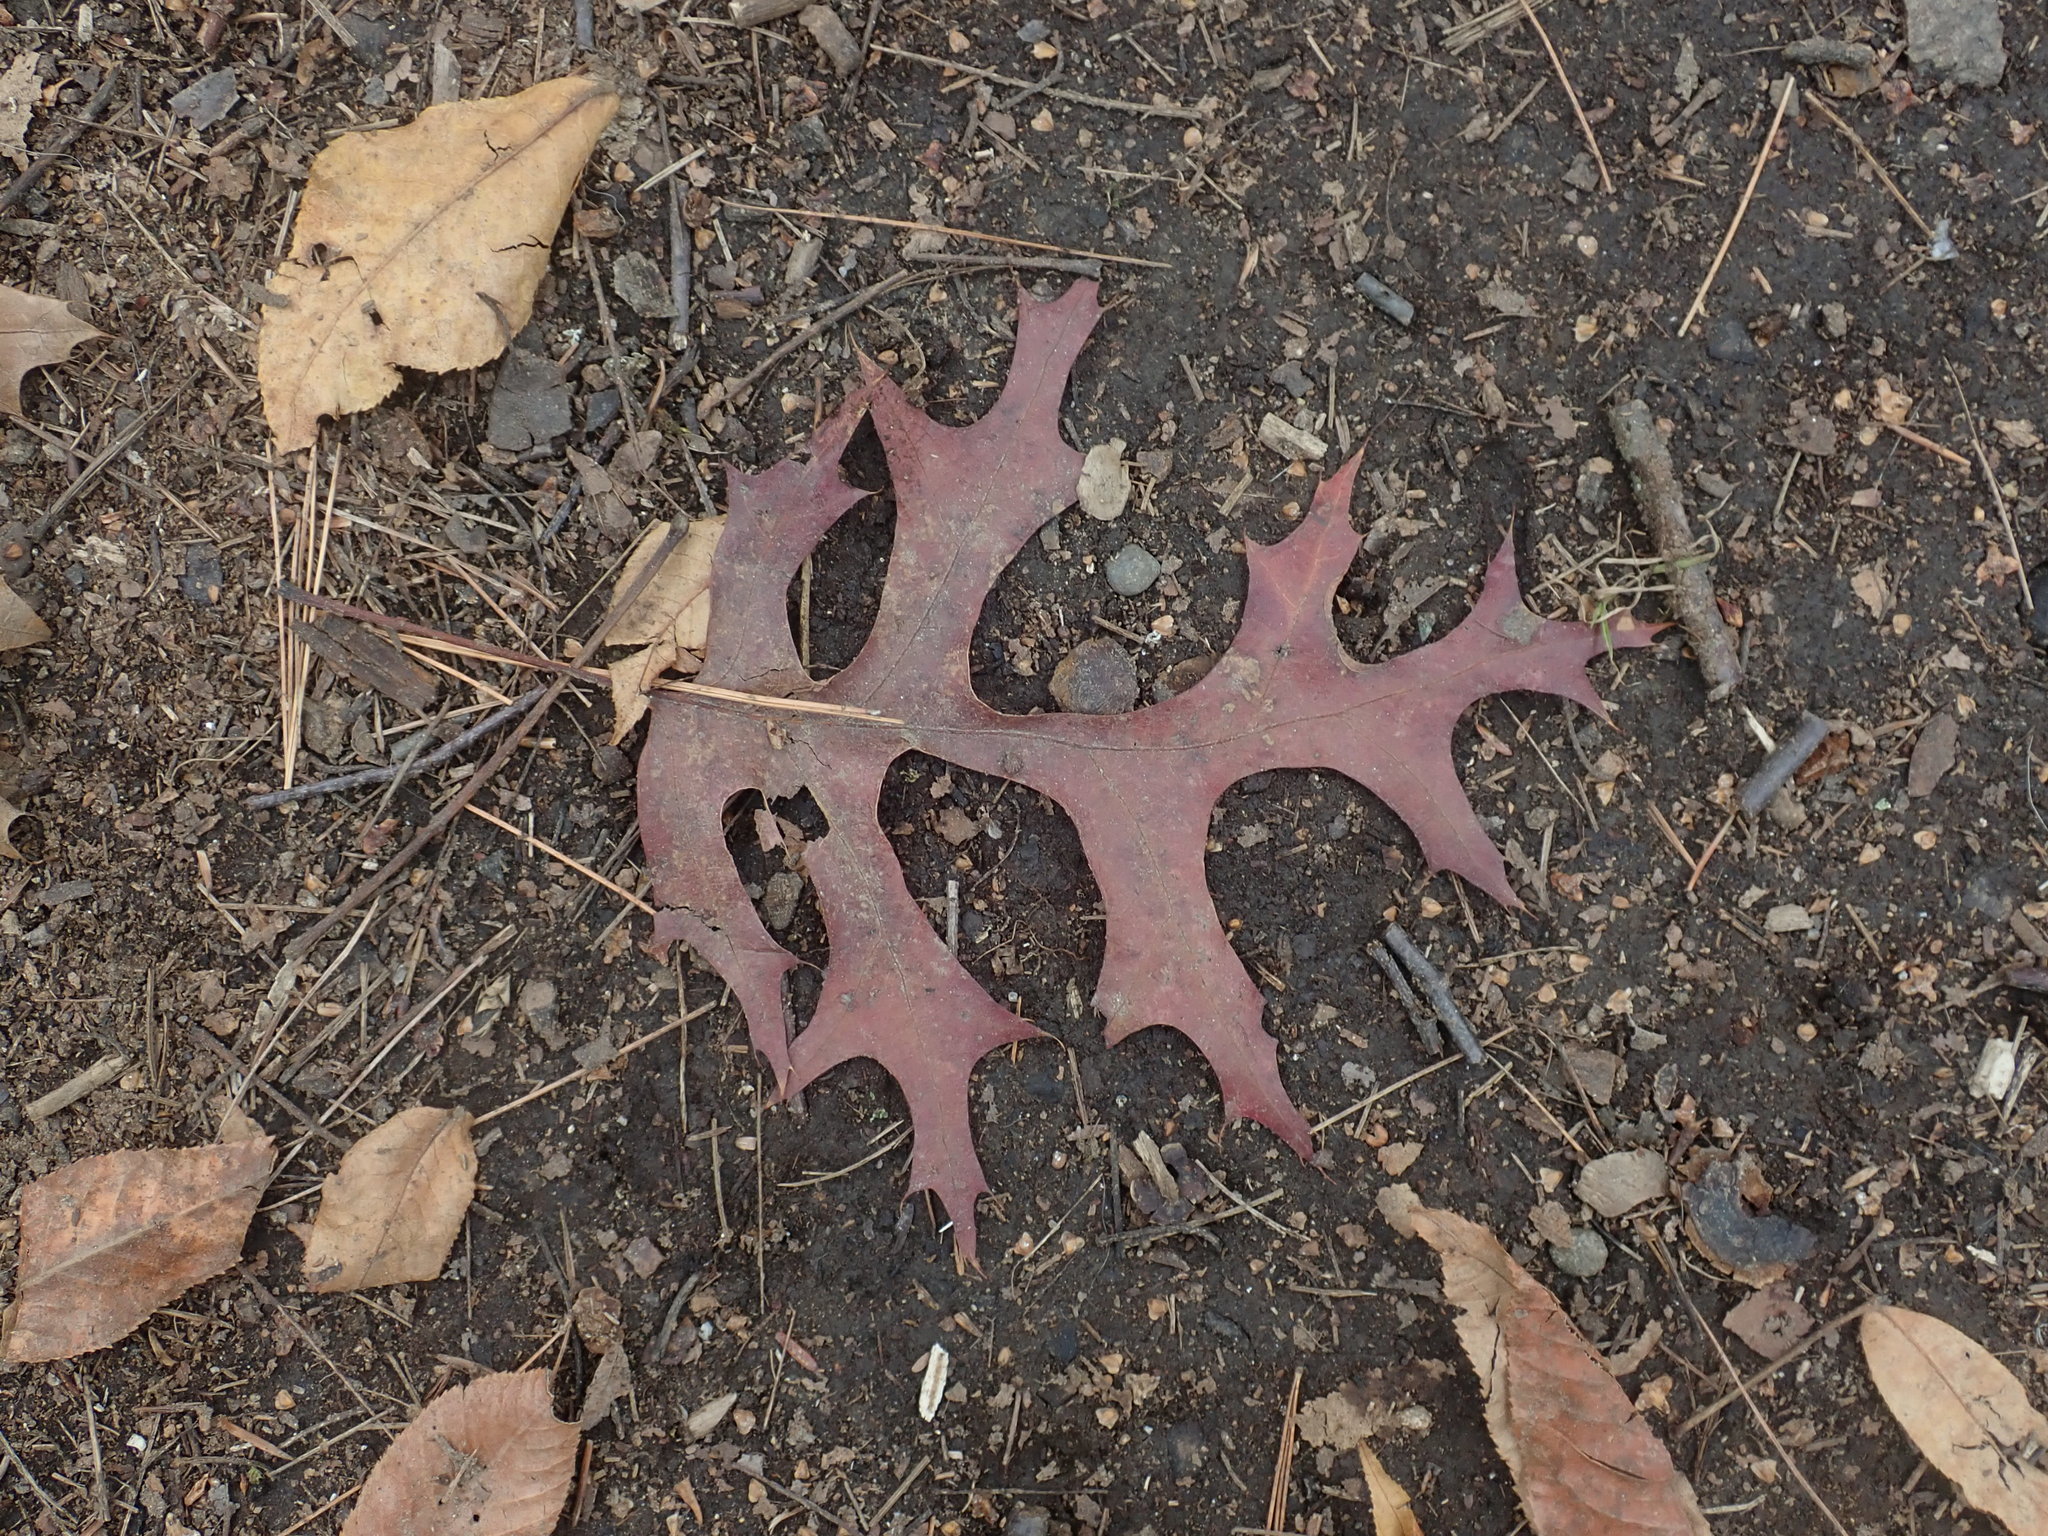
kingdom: Plantae
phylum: Tracheophyta
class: Magnoliopsida
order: Fagales
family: Fagaceae
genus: Quercus
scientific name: Quercus coccinea
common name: Scarlet oak
